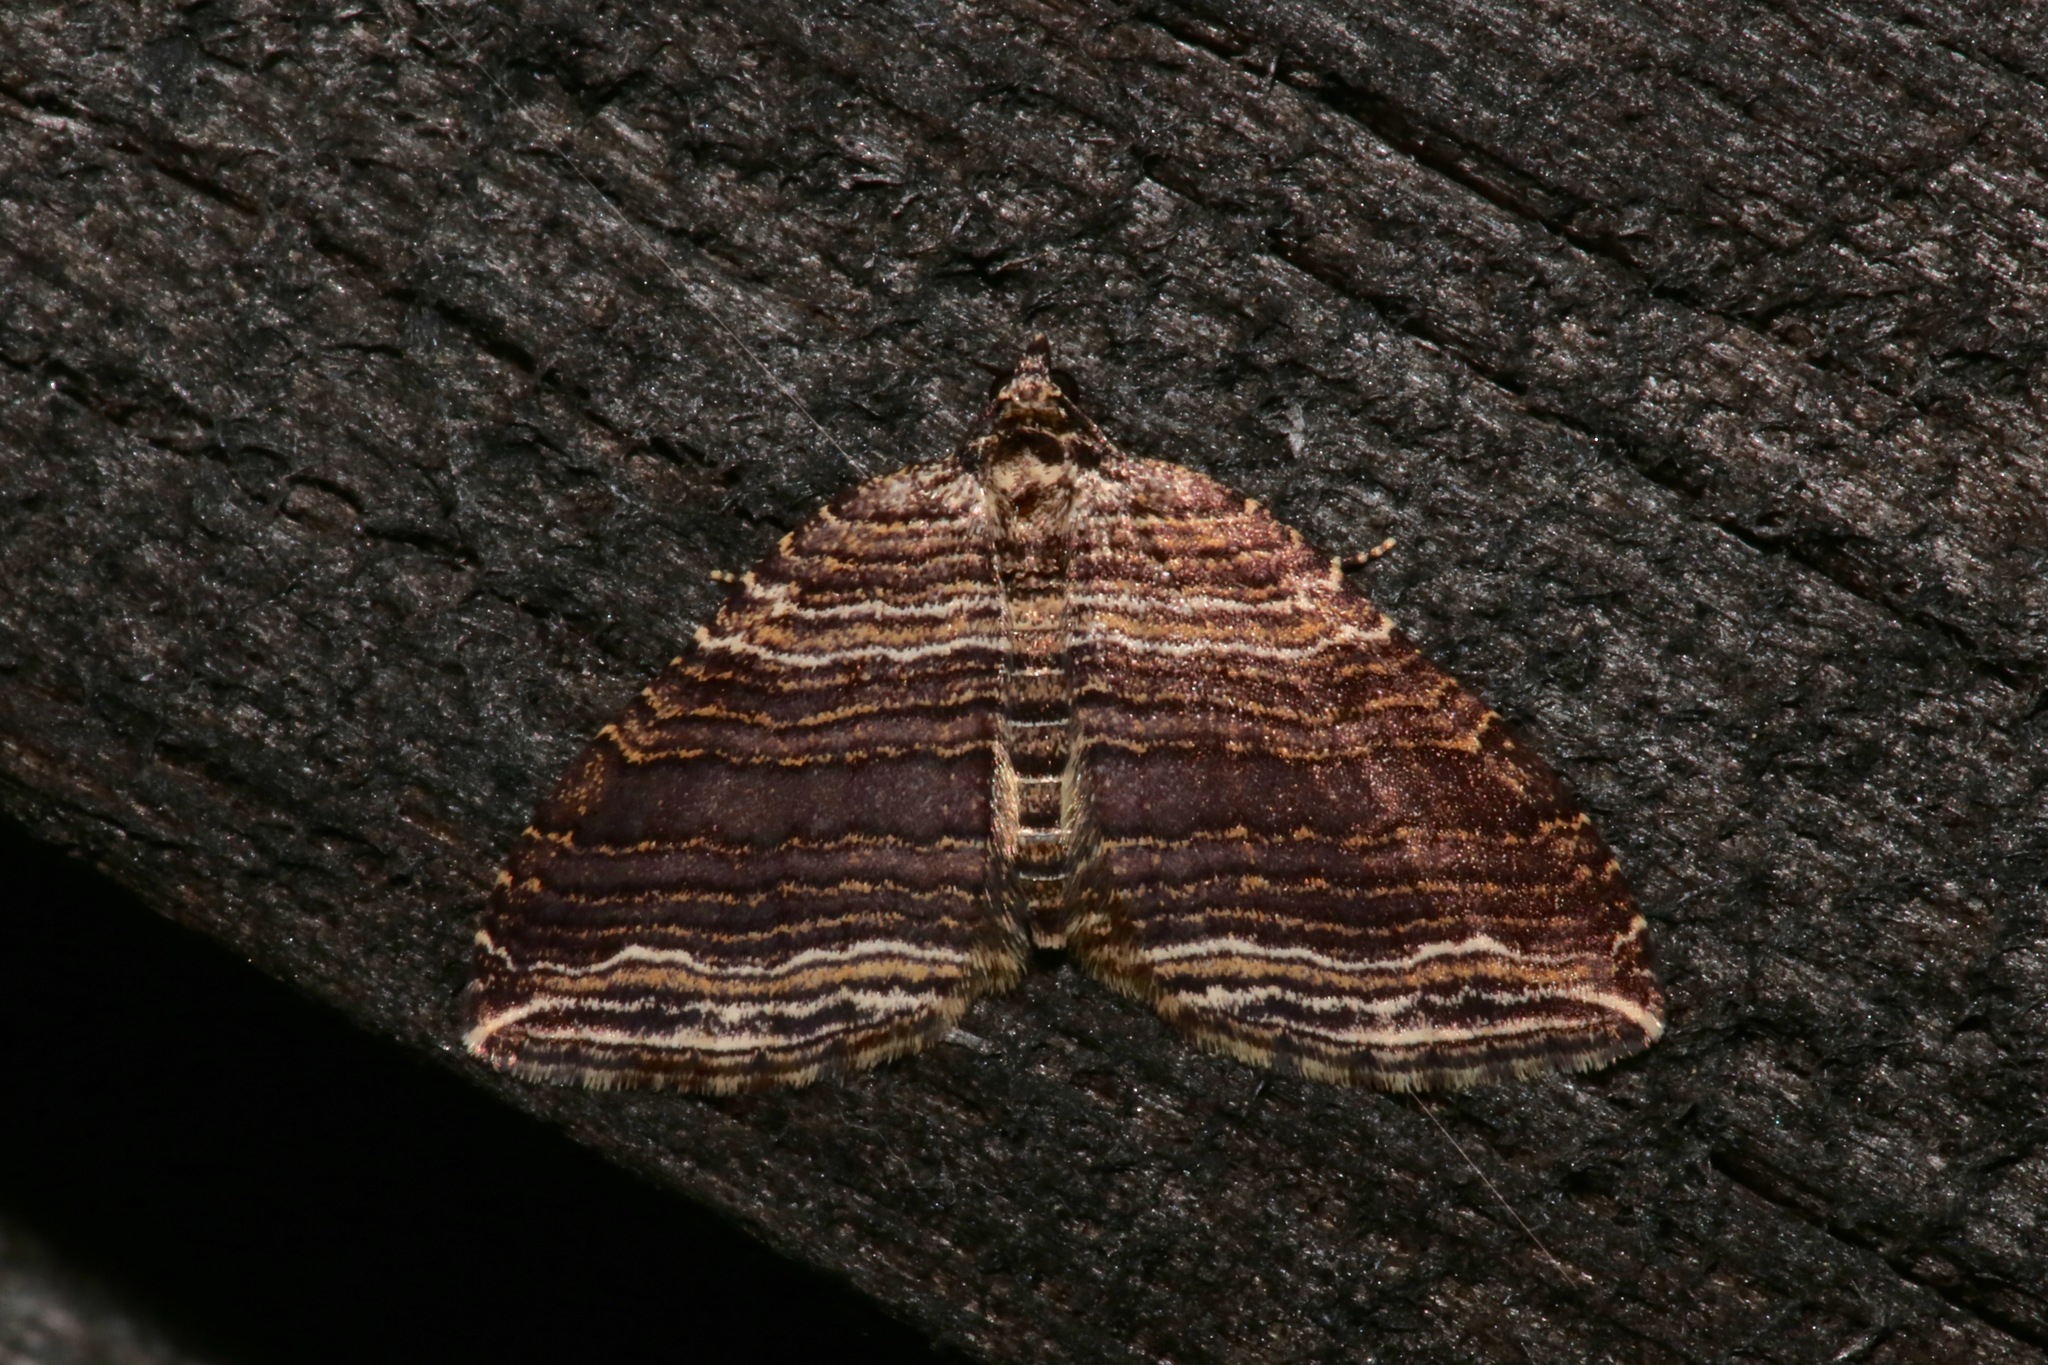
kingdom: Animalia
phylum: Arthropoda
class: Insecta
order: Lepidoptera
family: Geometridae
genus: Anticlea
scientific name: Anticlea multiferata
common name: Many-lined carpet
